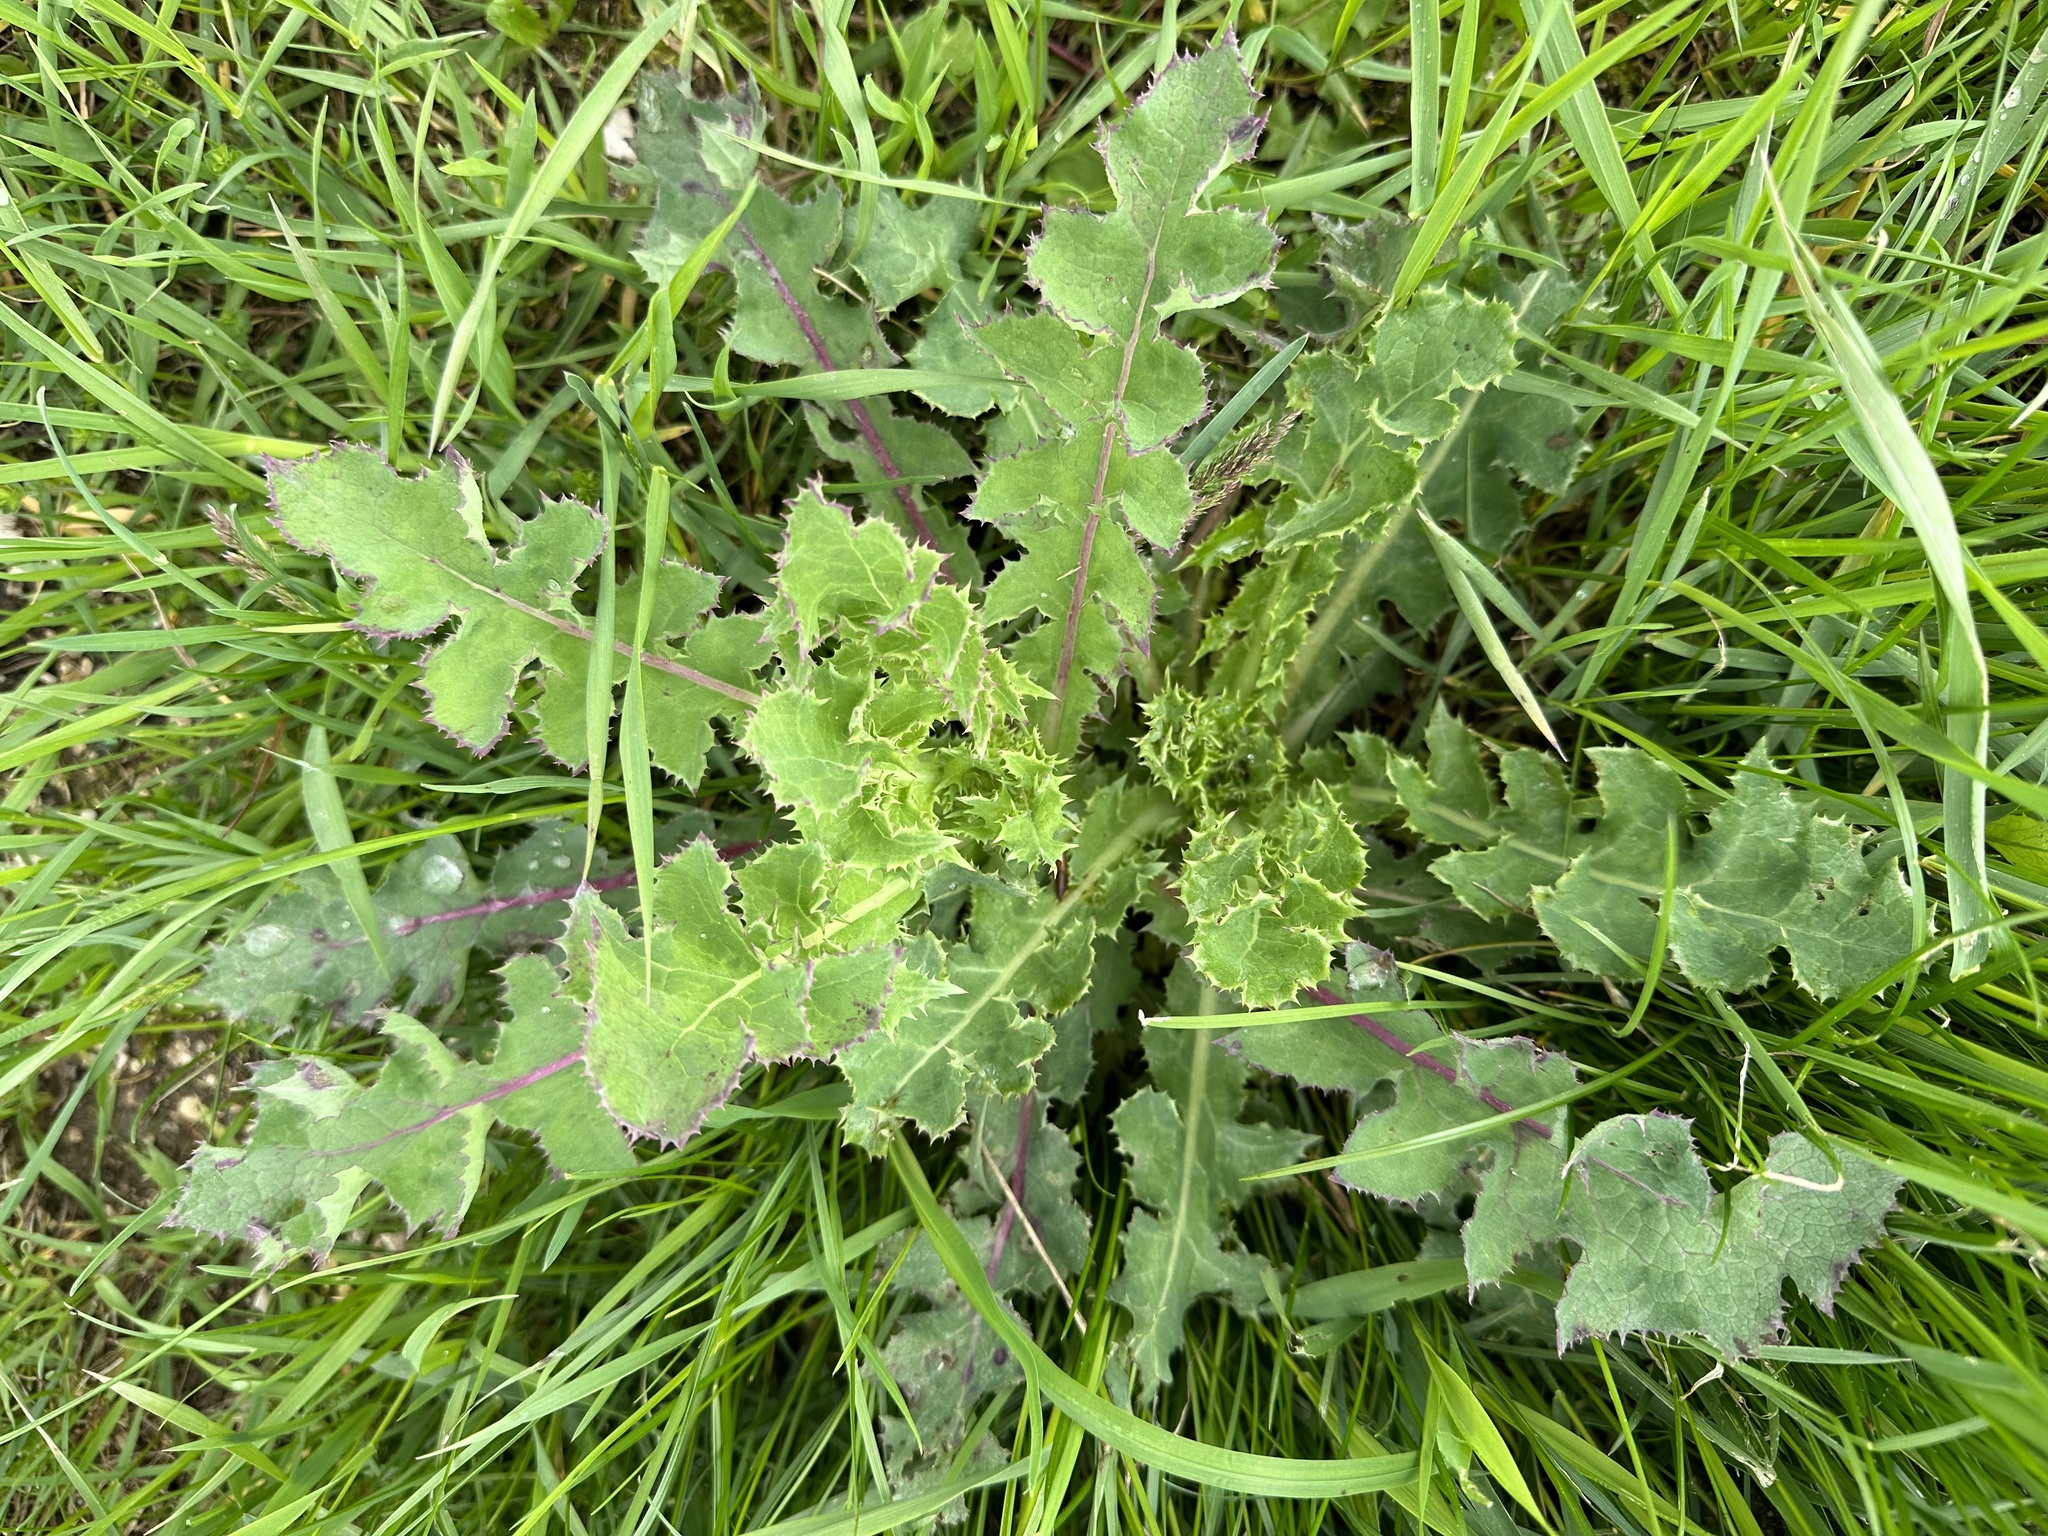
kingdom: Plantae
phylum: Tracheophyta
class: Magnoliopsida
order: Asterales
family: Asteraceae
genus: Sonchus
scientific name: Sonchus asper
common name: Prickly sow-thistle
